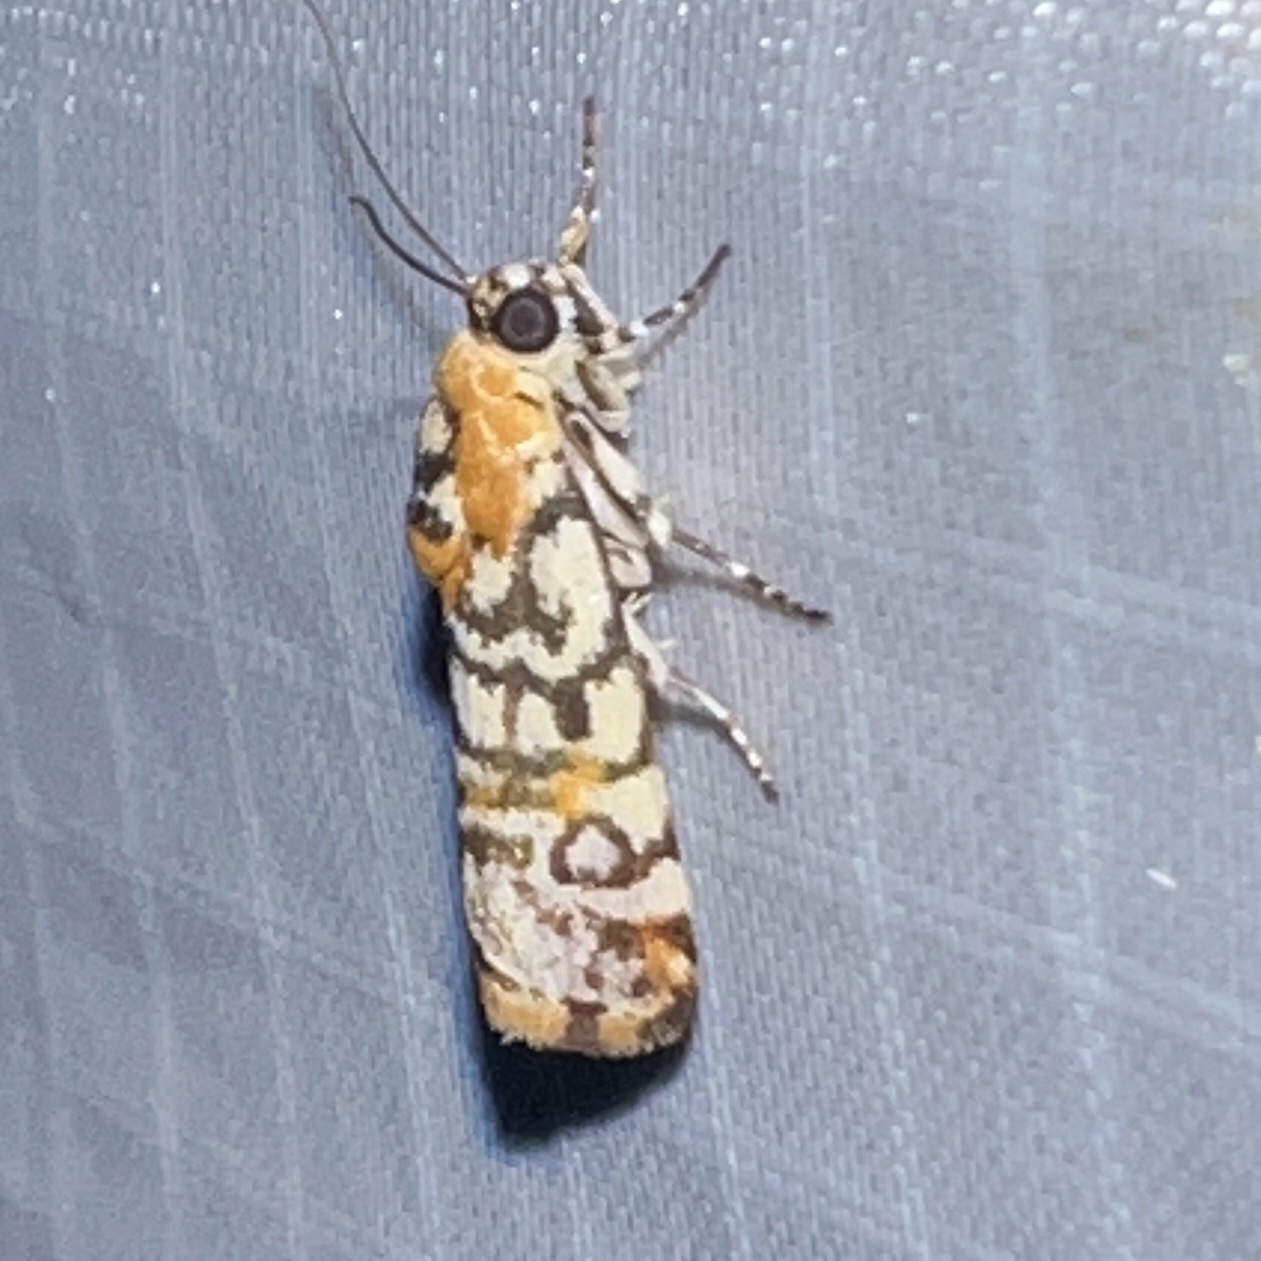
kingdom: Animalia
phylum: Arthropoda
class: Insecta
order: Lepidoptera
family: Noctuidae
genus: Spragueia
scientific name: Spragueia guttata
